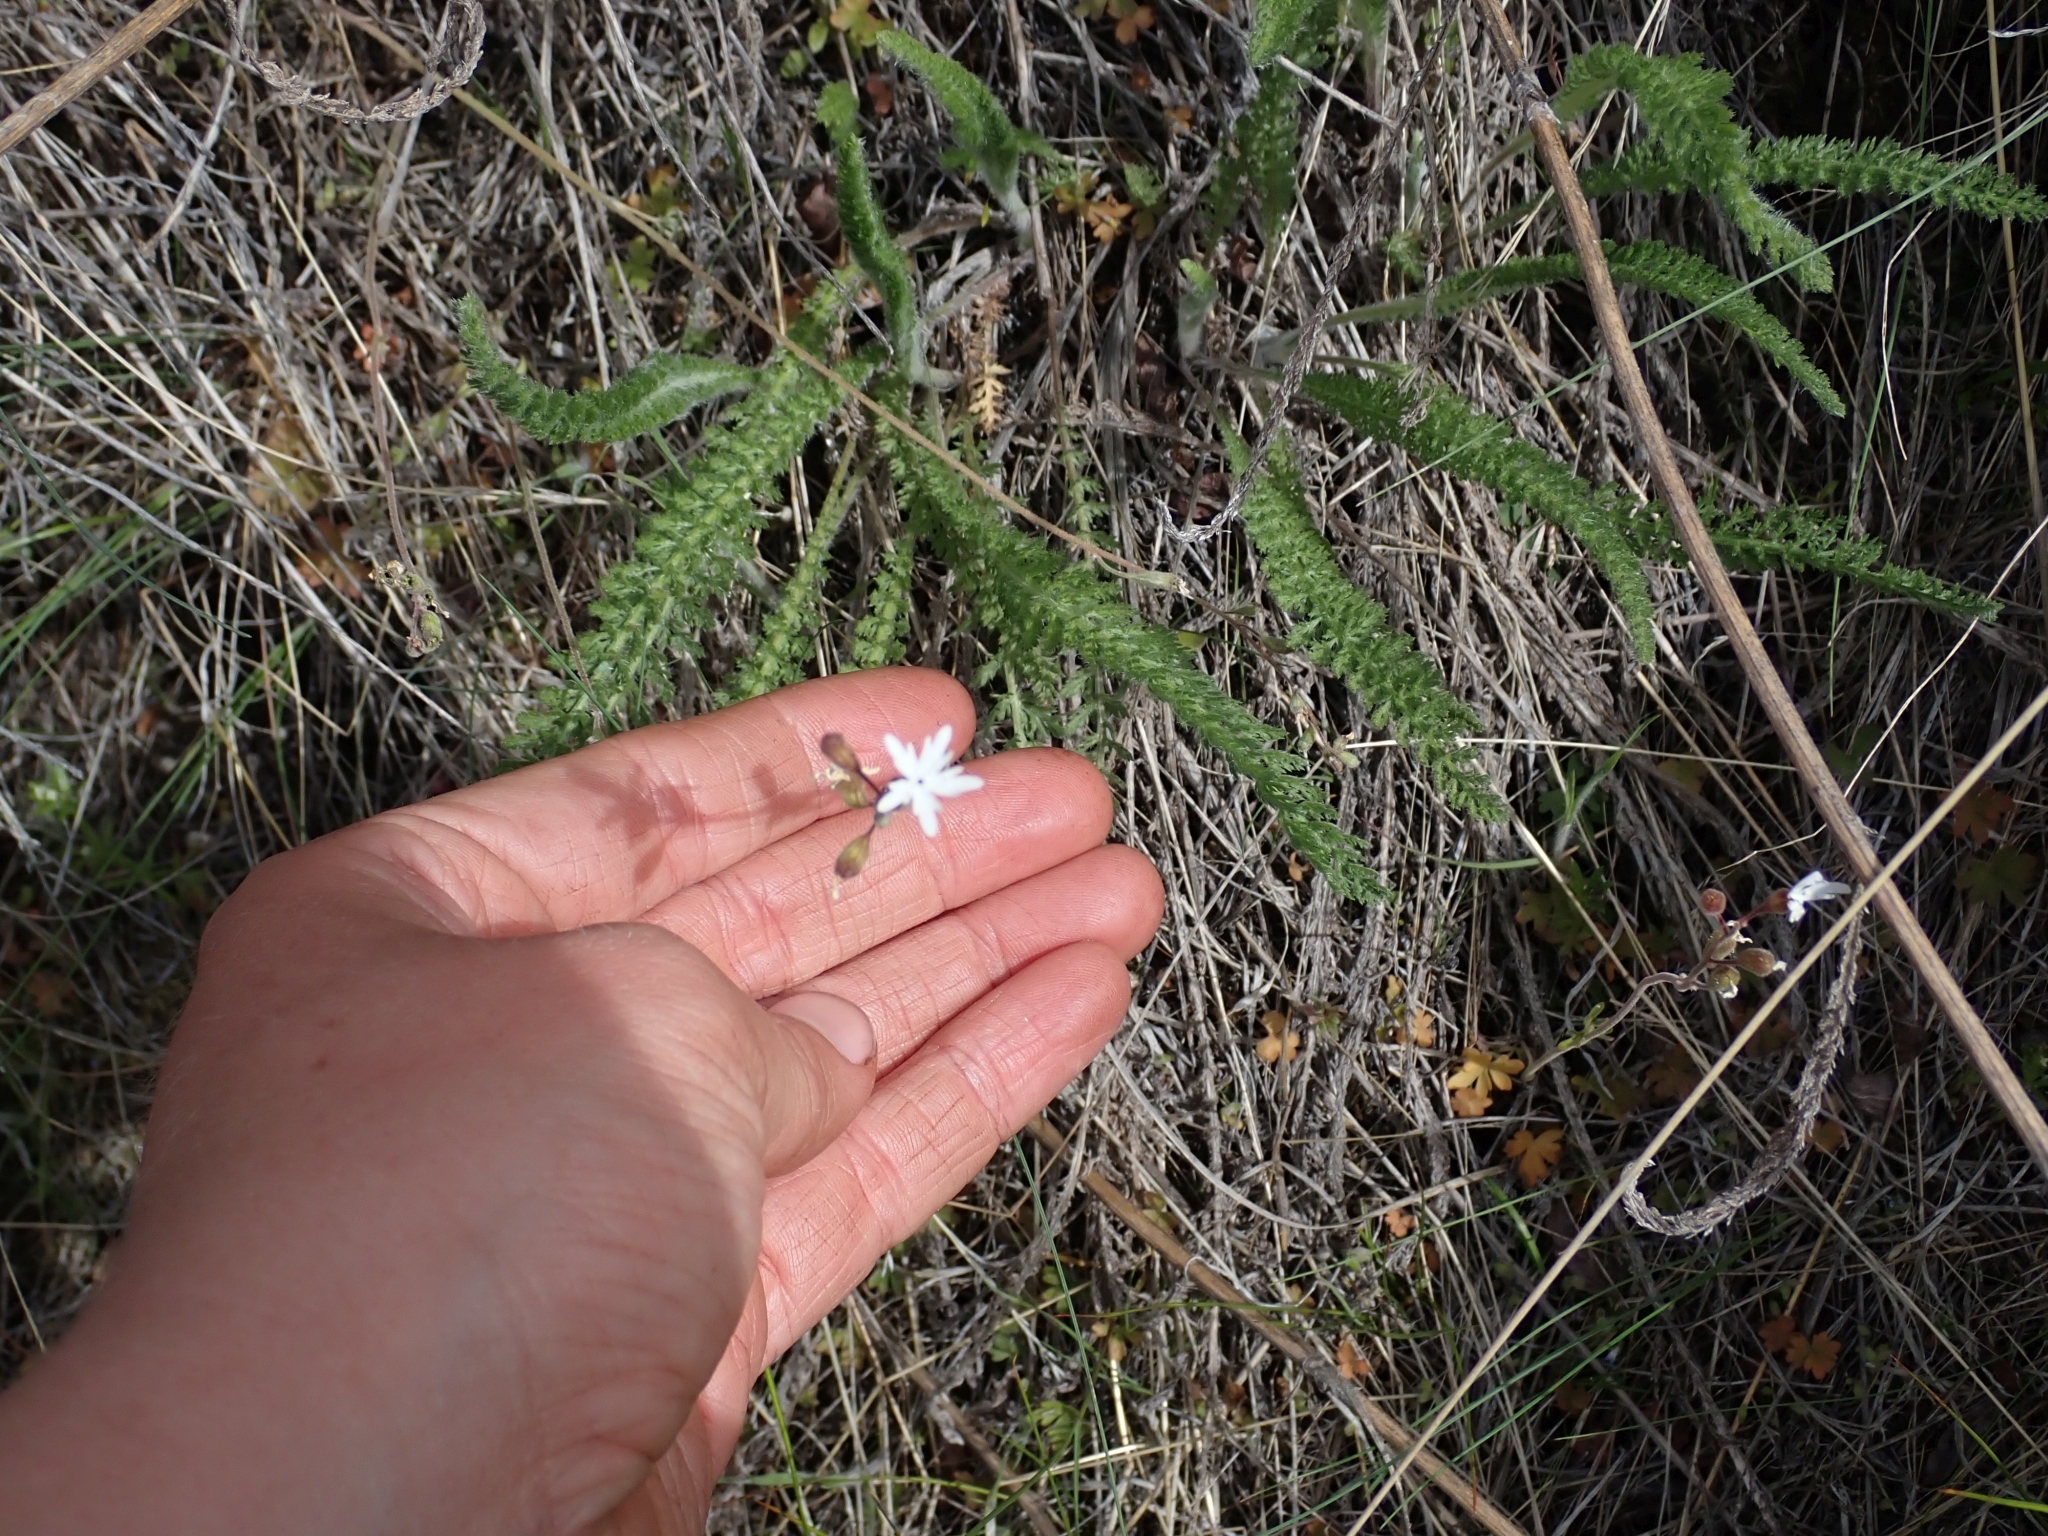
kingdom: Plantae
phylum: Tracheophyta
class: Magnoliopsida
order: Saxifragales
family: Saxifragaceae
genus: Lithophragma
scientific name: Lithophragma parviflorum
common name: Small-flowered fringe-cup
